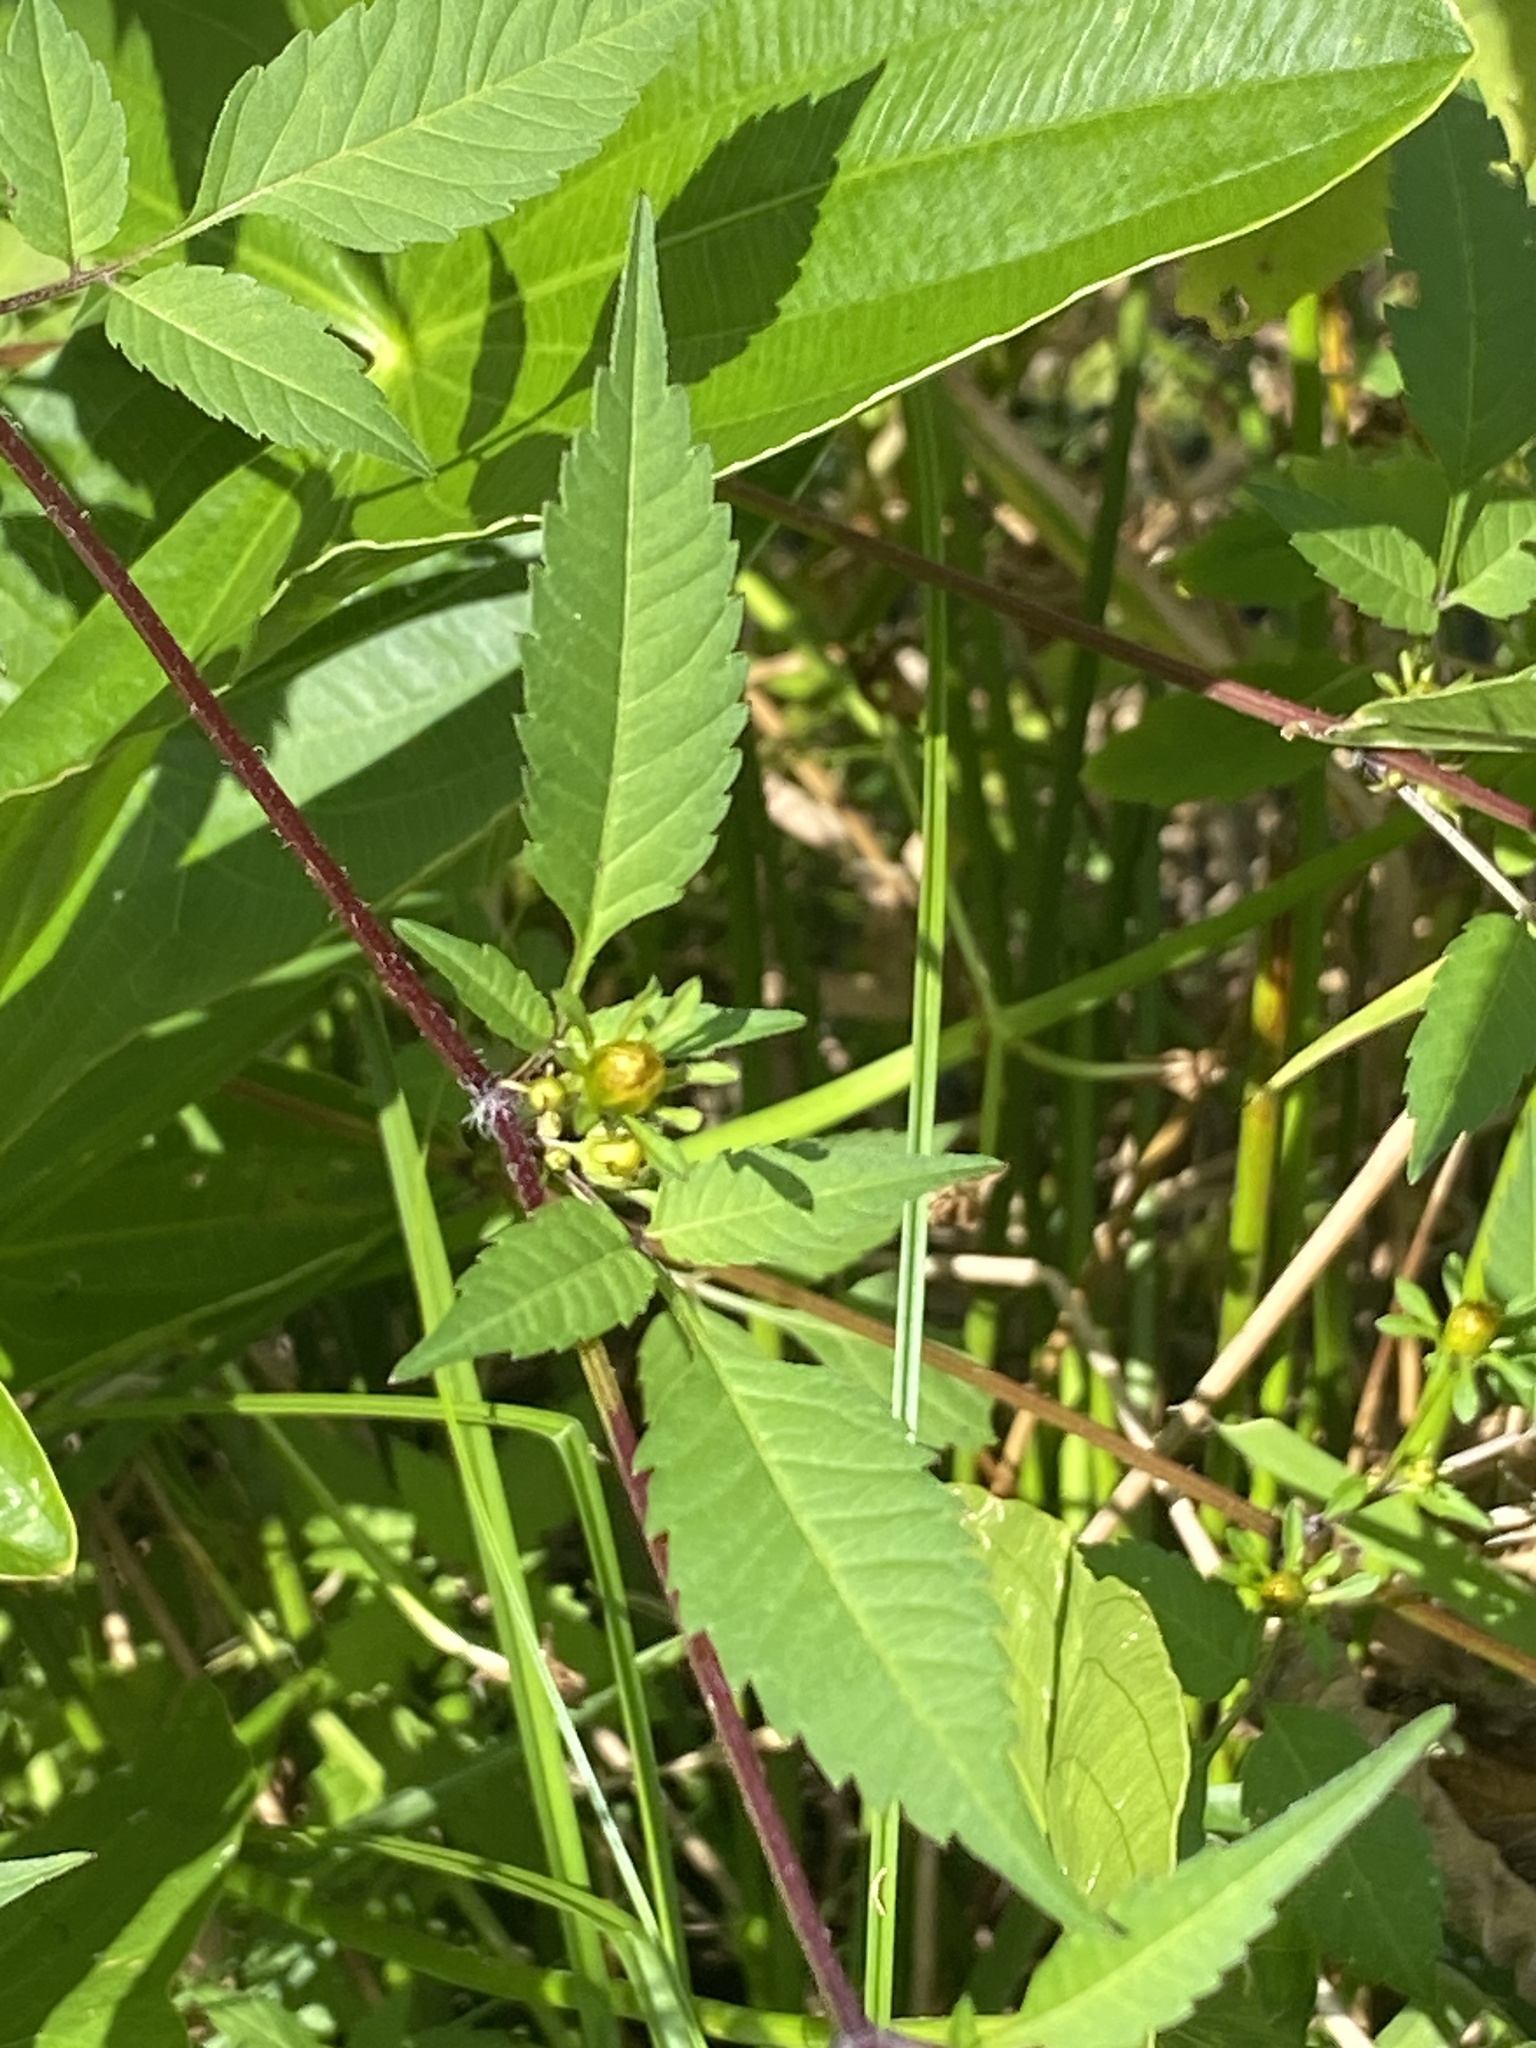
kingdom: Plantae
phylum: Tracheophyta
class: Magnoliopsida
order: Asterales
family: Asteraceae
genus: Bidens
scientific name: Bidens frondosa
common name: Beggarticks
